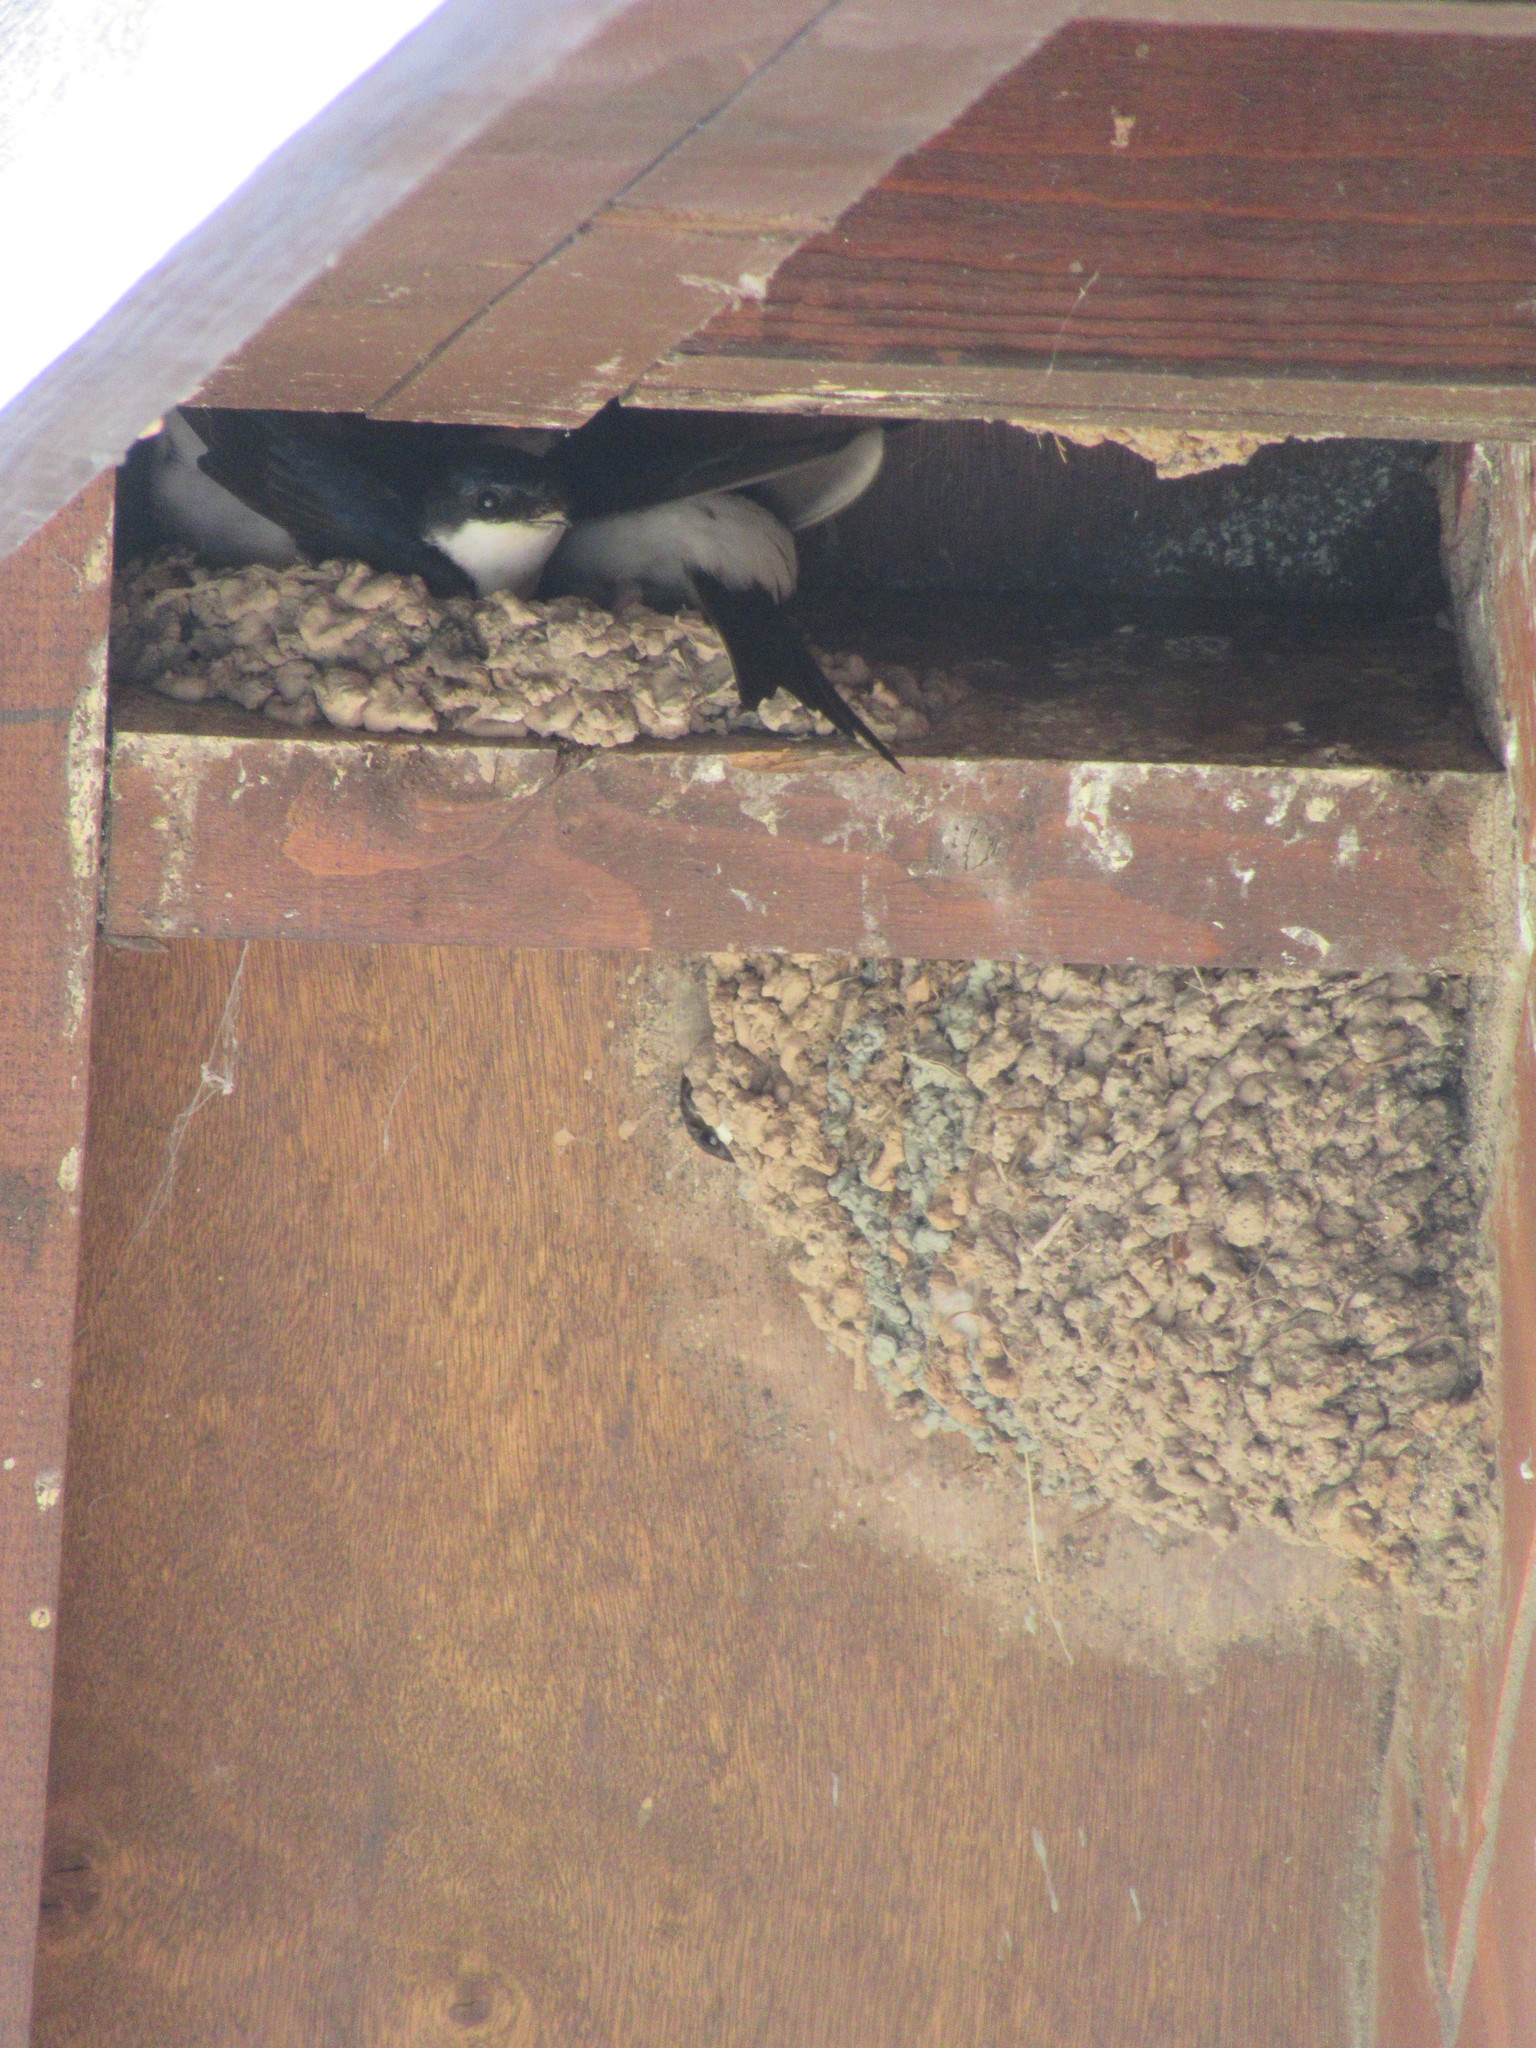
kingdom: Animalia
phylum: Chordata
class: Aves
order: Passeriformes
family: Hirundinidae
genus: Delichon
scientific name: Delichon urbicum
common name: Common house martin
